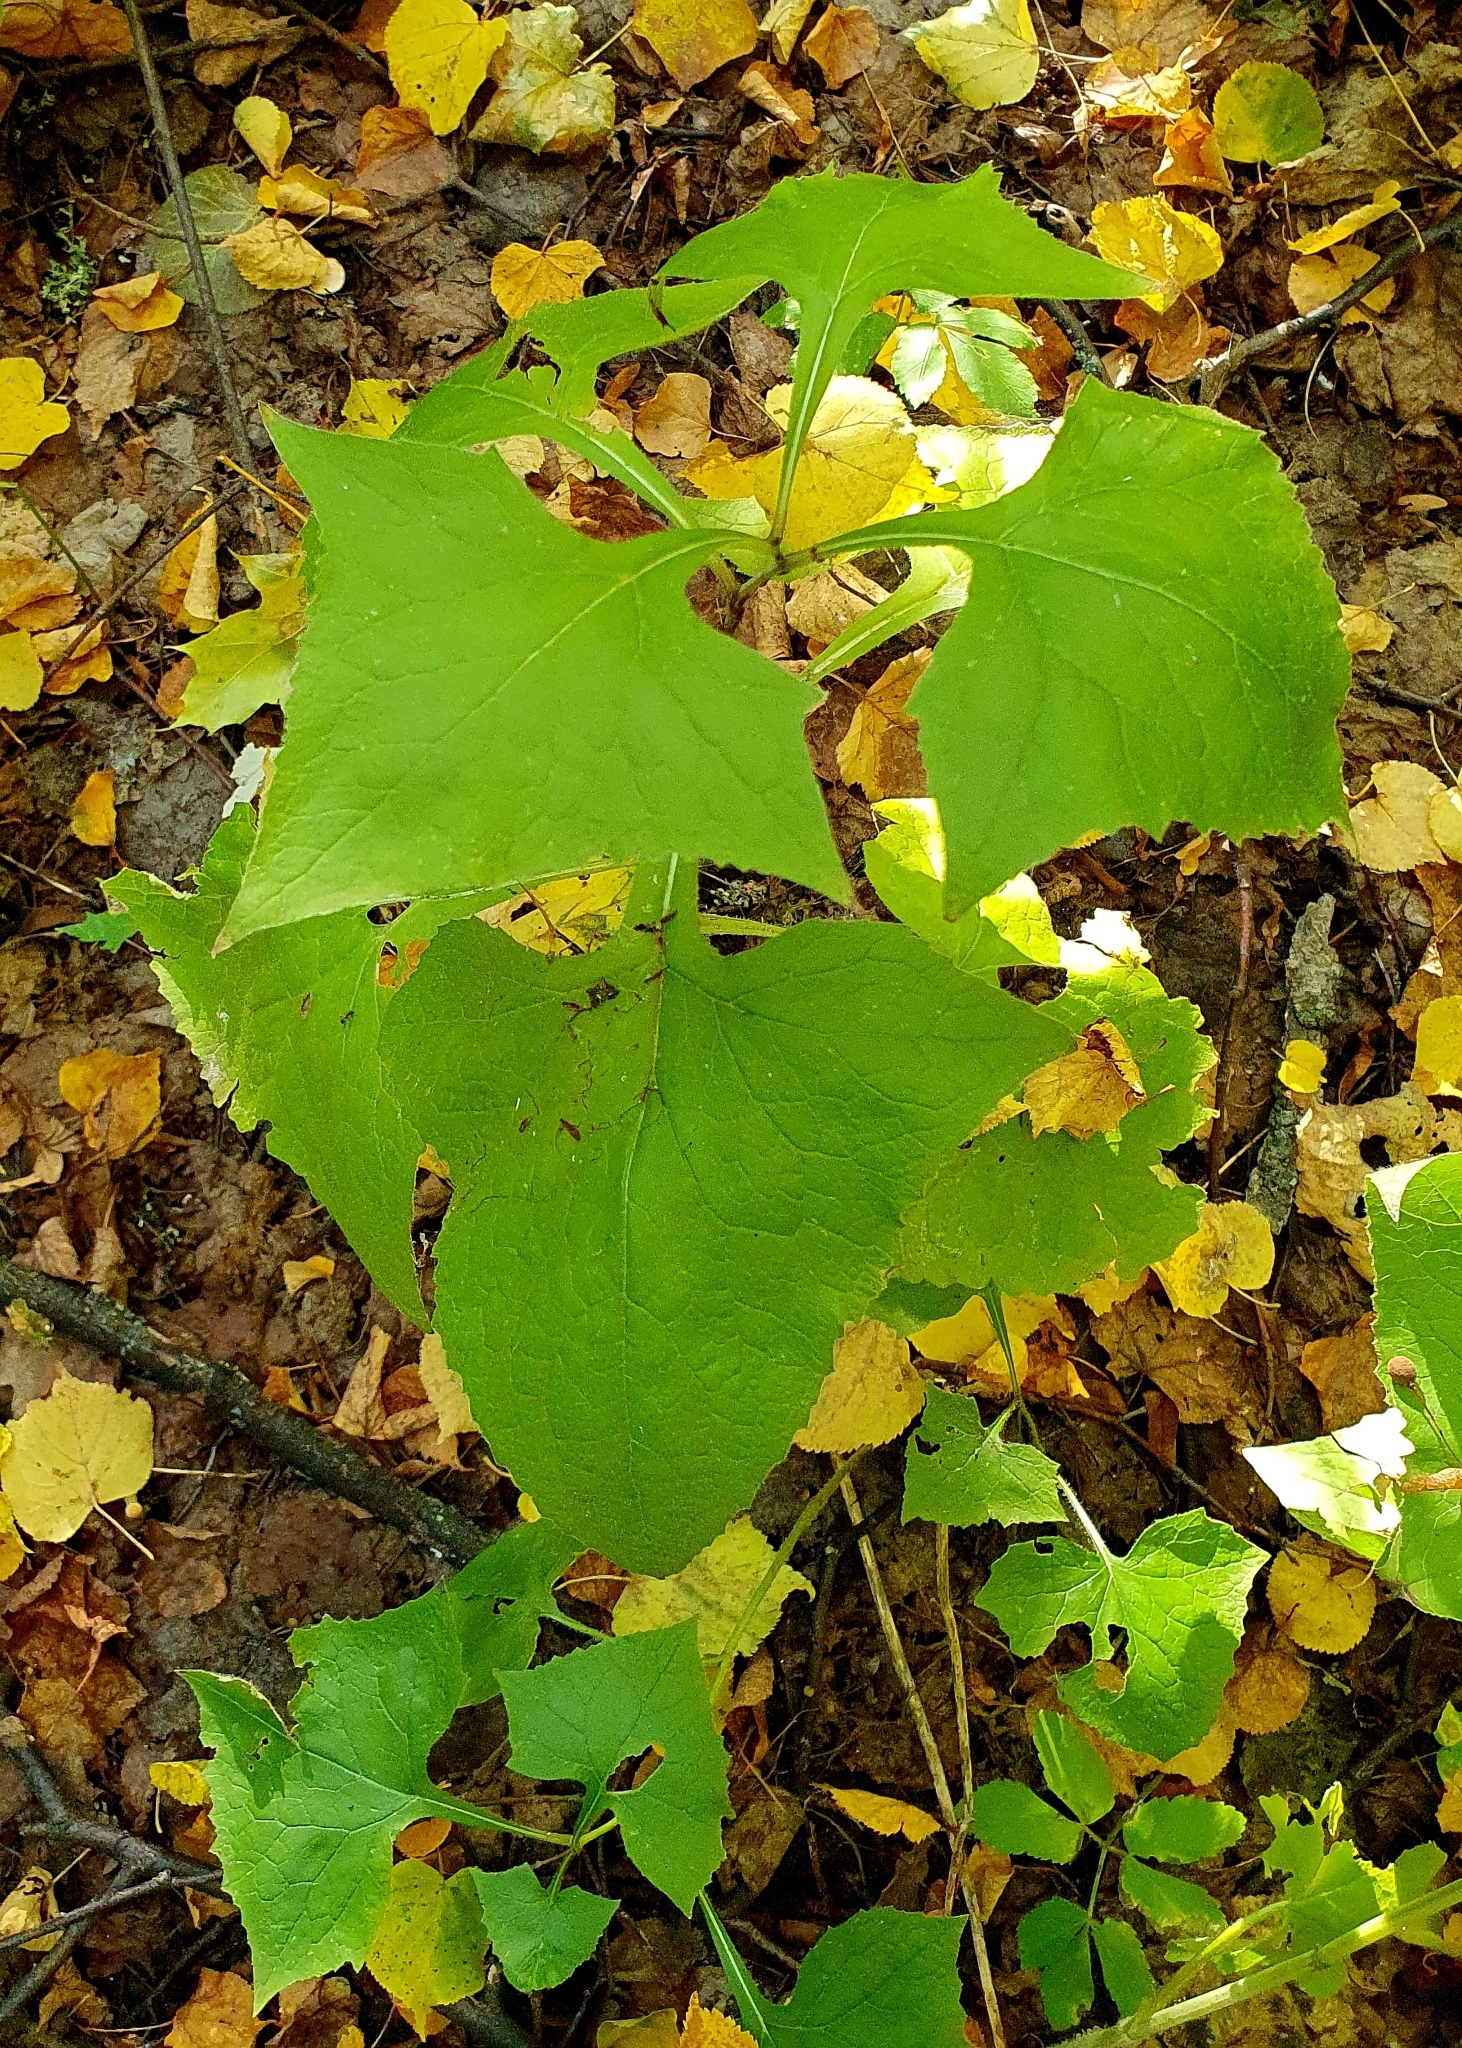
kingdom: Plantae
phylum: Tracheophyta
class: Magnoliopsida
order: Asterales
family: Asteraceae
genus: Parasenecio
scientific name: Parasenecio hastatus
